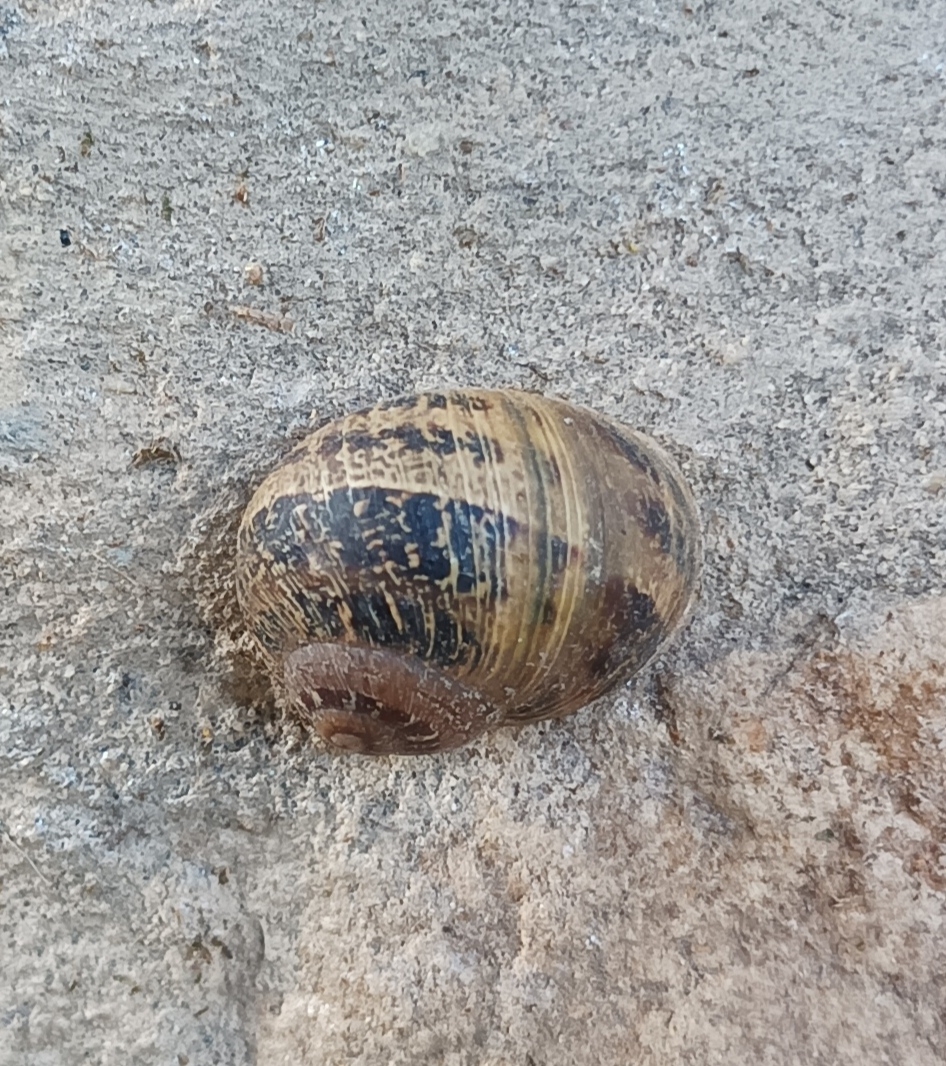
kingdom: Animalia
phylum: Mollusca
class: Gastropoda
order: Stylommatophora
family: Helicidae
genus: Cornu
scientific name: Cornu aspersum
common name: Brown garden snail
